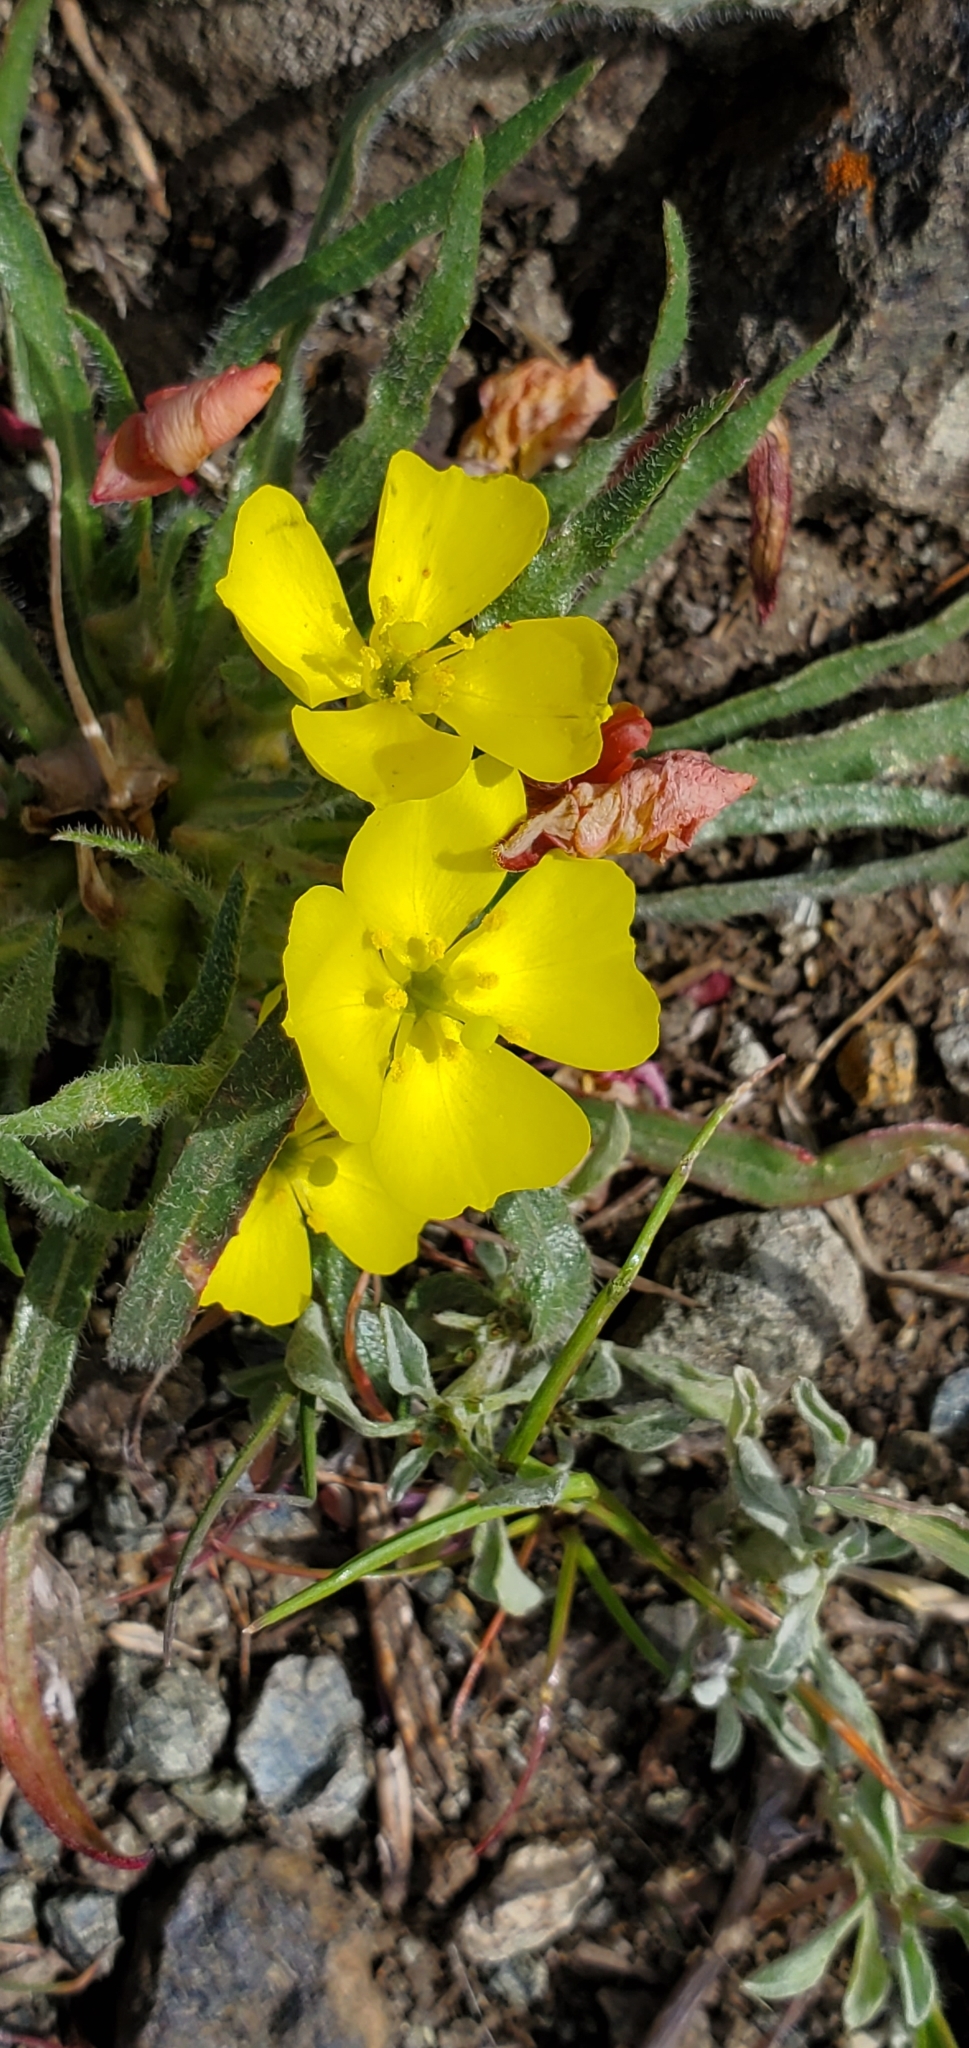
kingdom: Plantae
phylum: Tracheophyta
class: Magnoliopsida
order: Myrtales
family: Onagraceae
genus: Tetrapteron
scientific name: Tetrapteron graciliflorum
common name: Hill suncup
